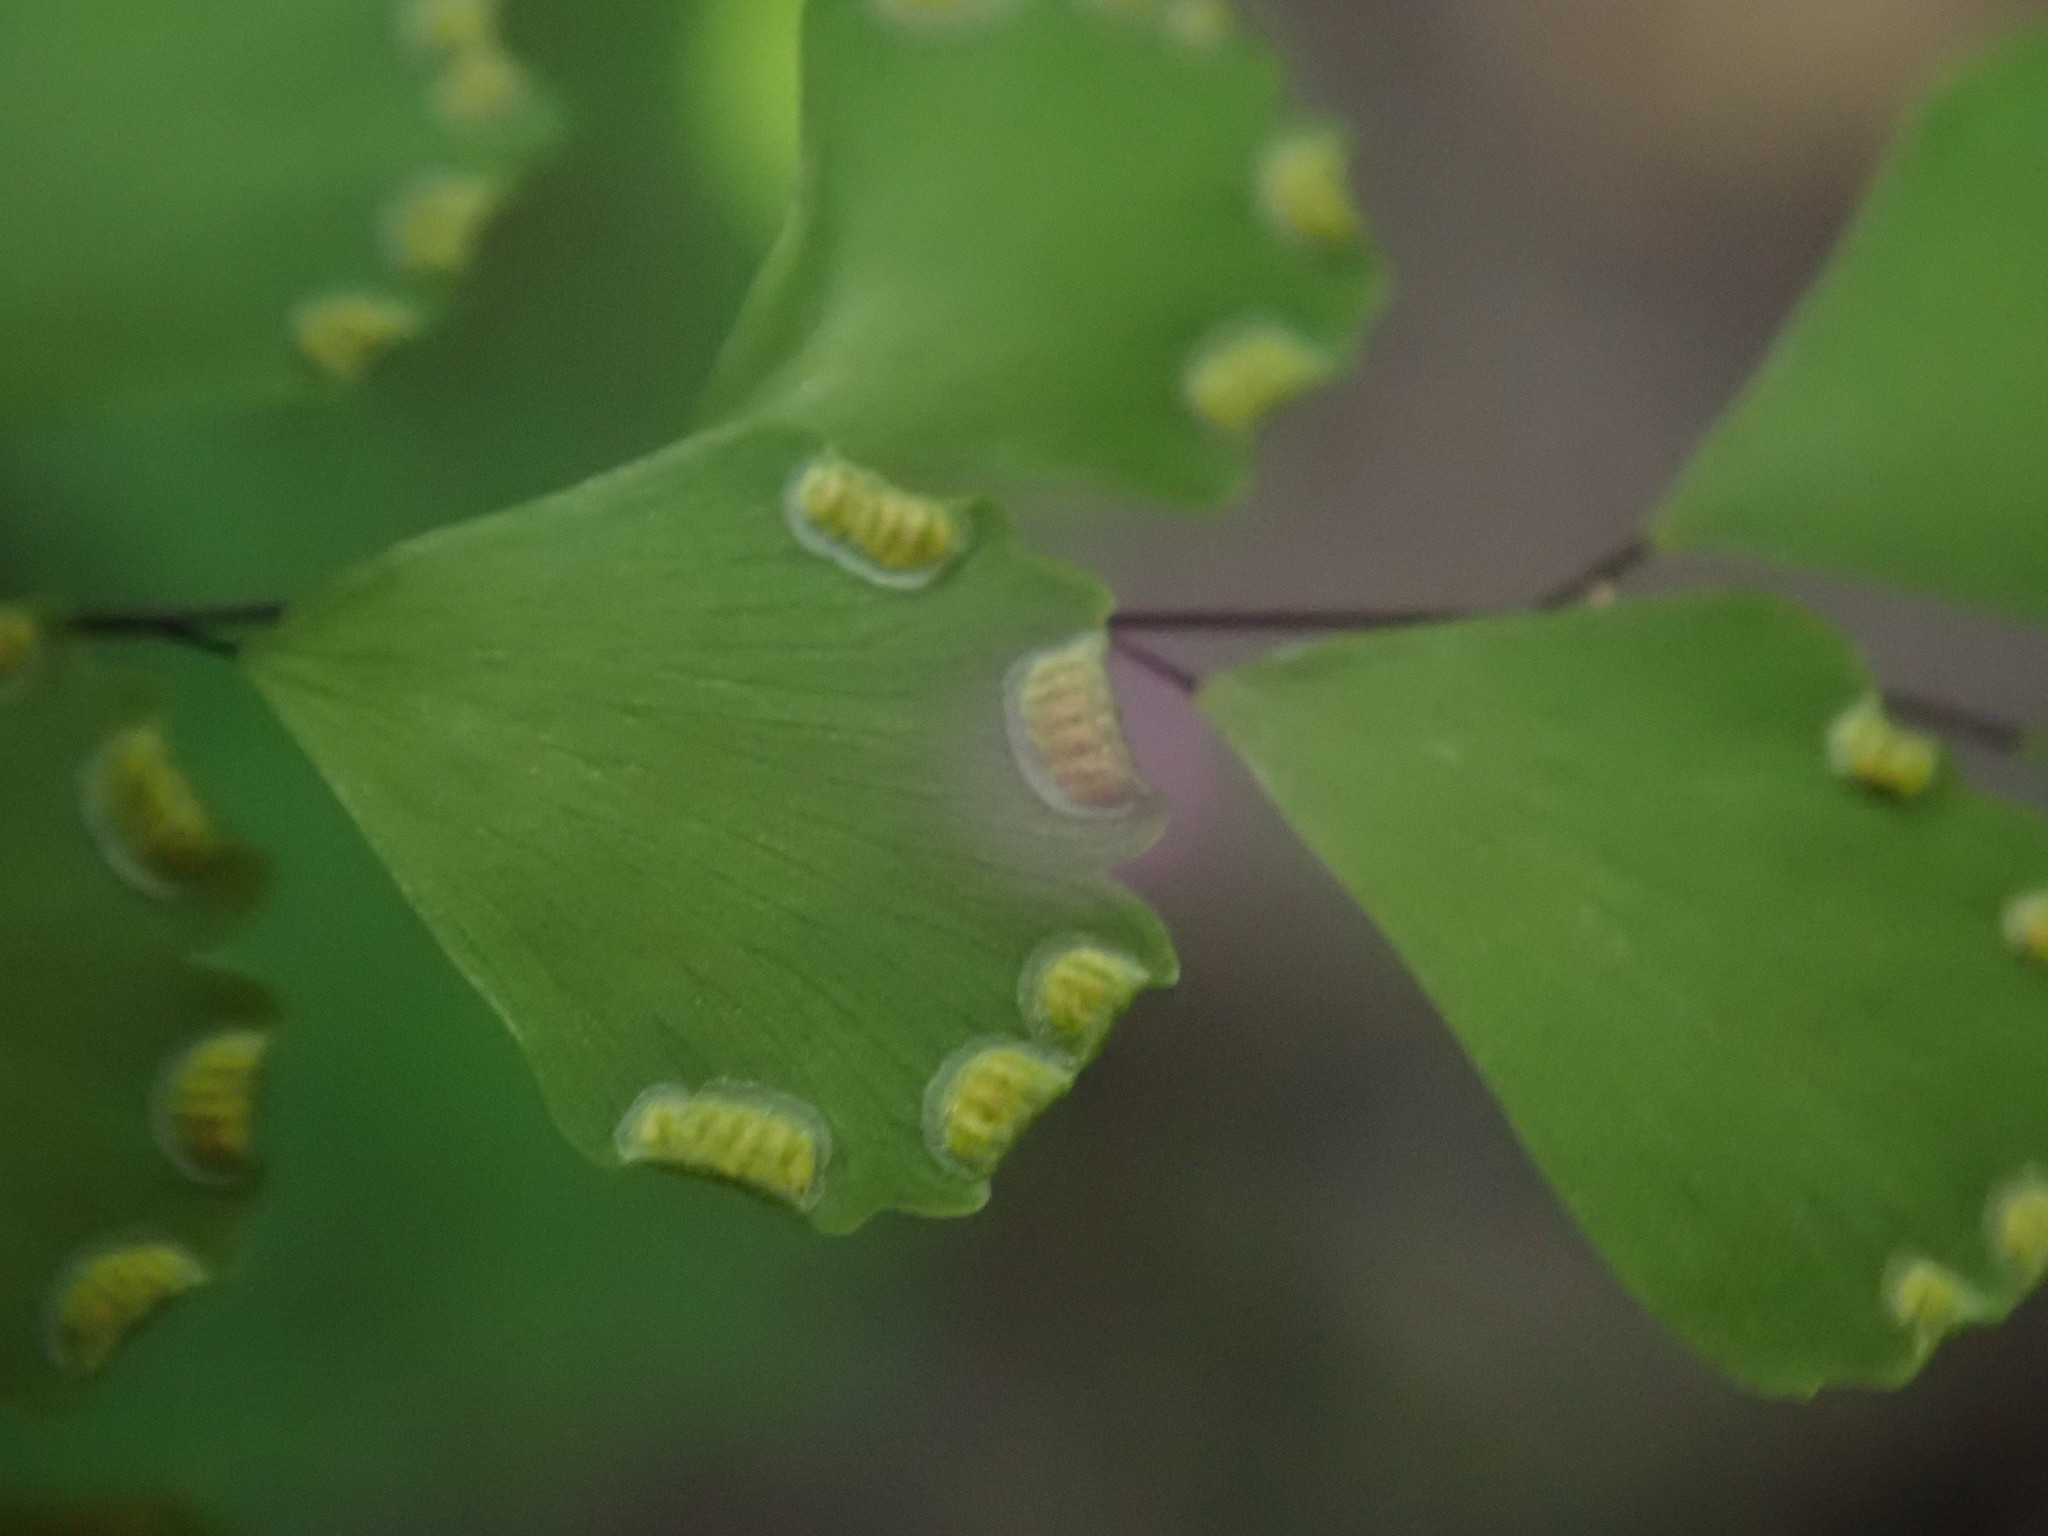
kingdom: Plantae
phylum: Tracheophyta
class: Polypodiopsida
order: Polypodiales
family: Pteridaceae
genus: Adiantum
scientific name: Adiantum fragile
